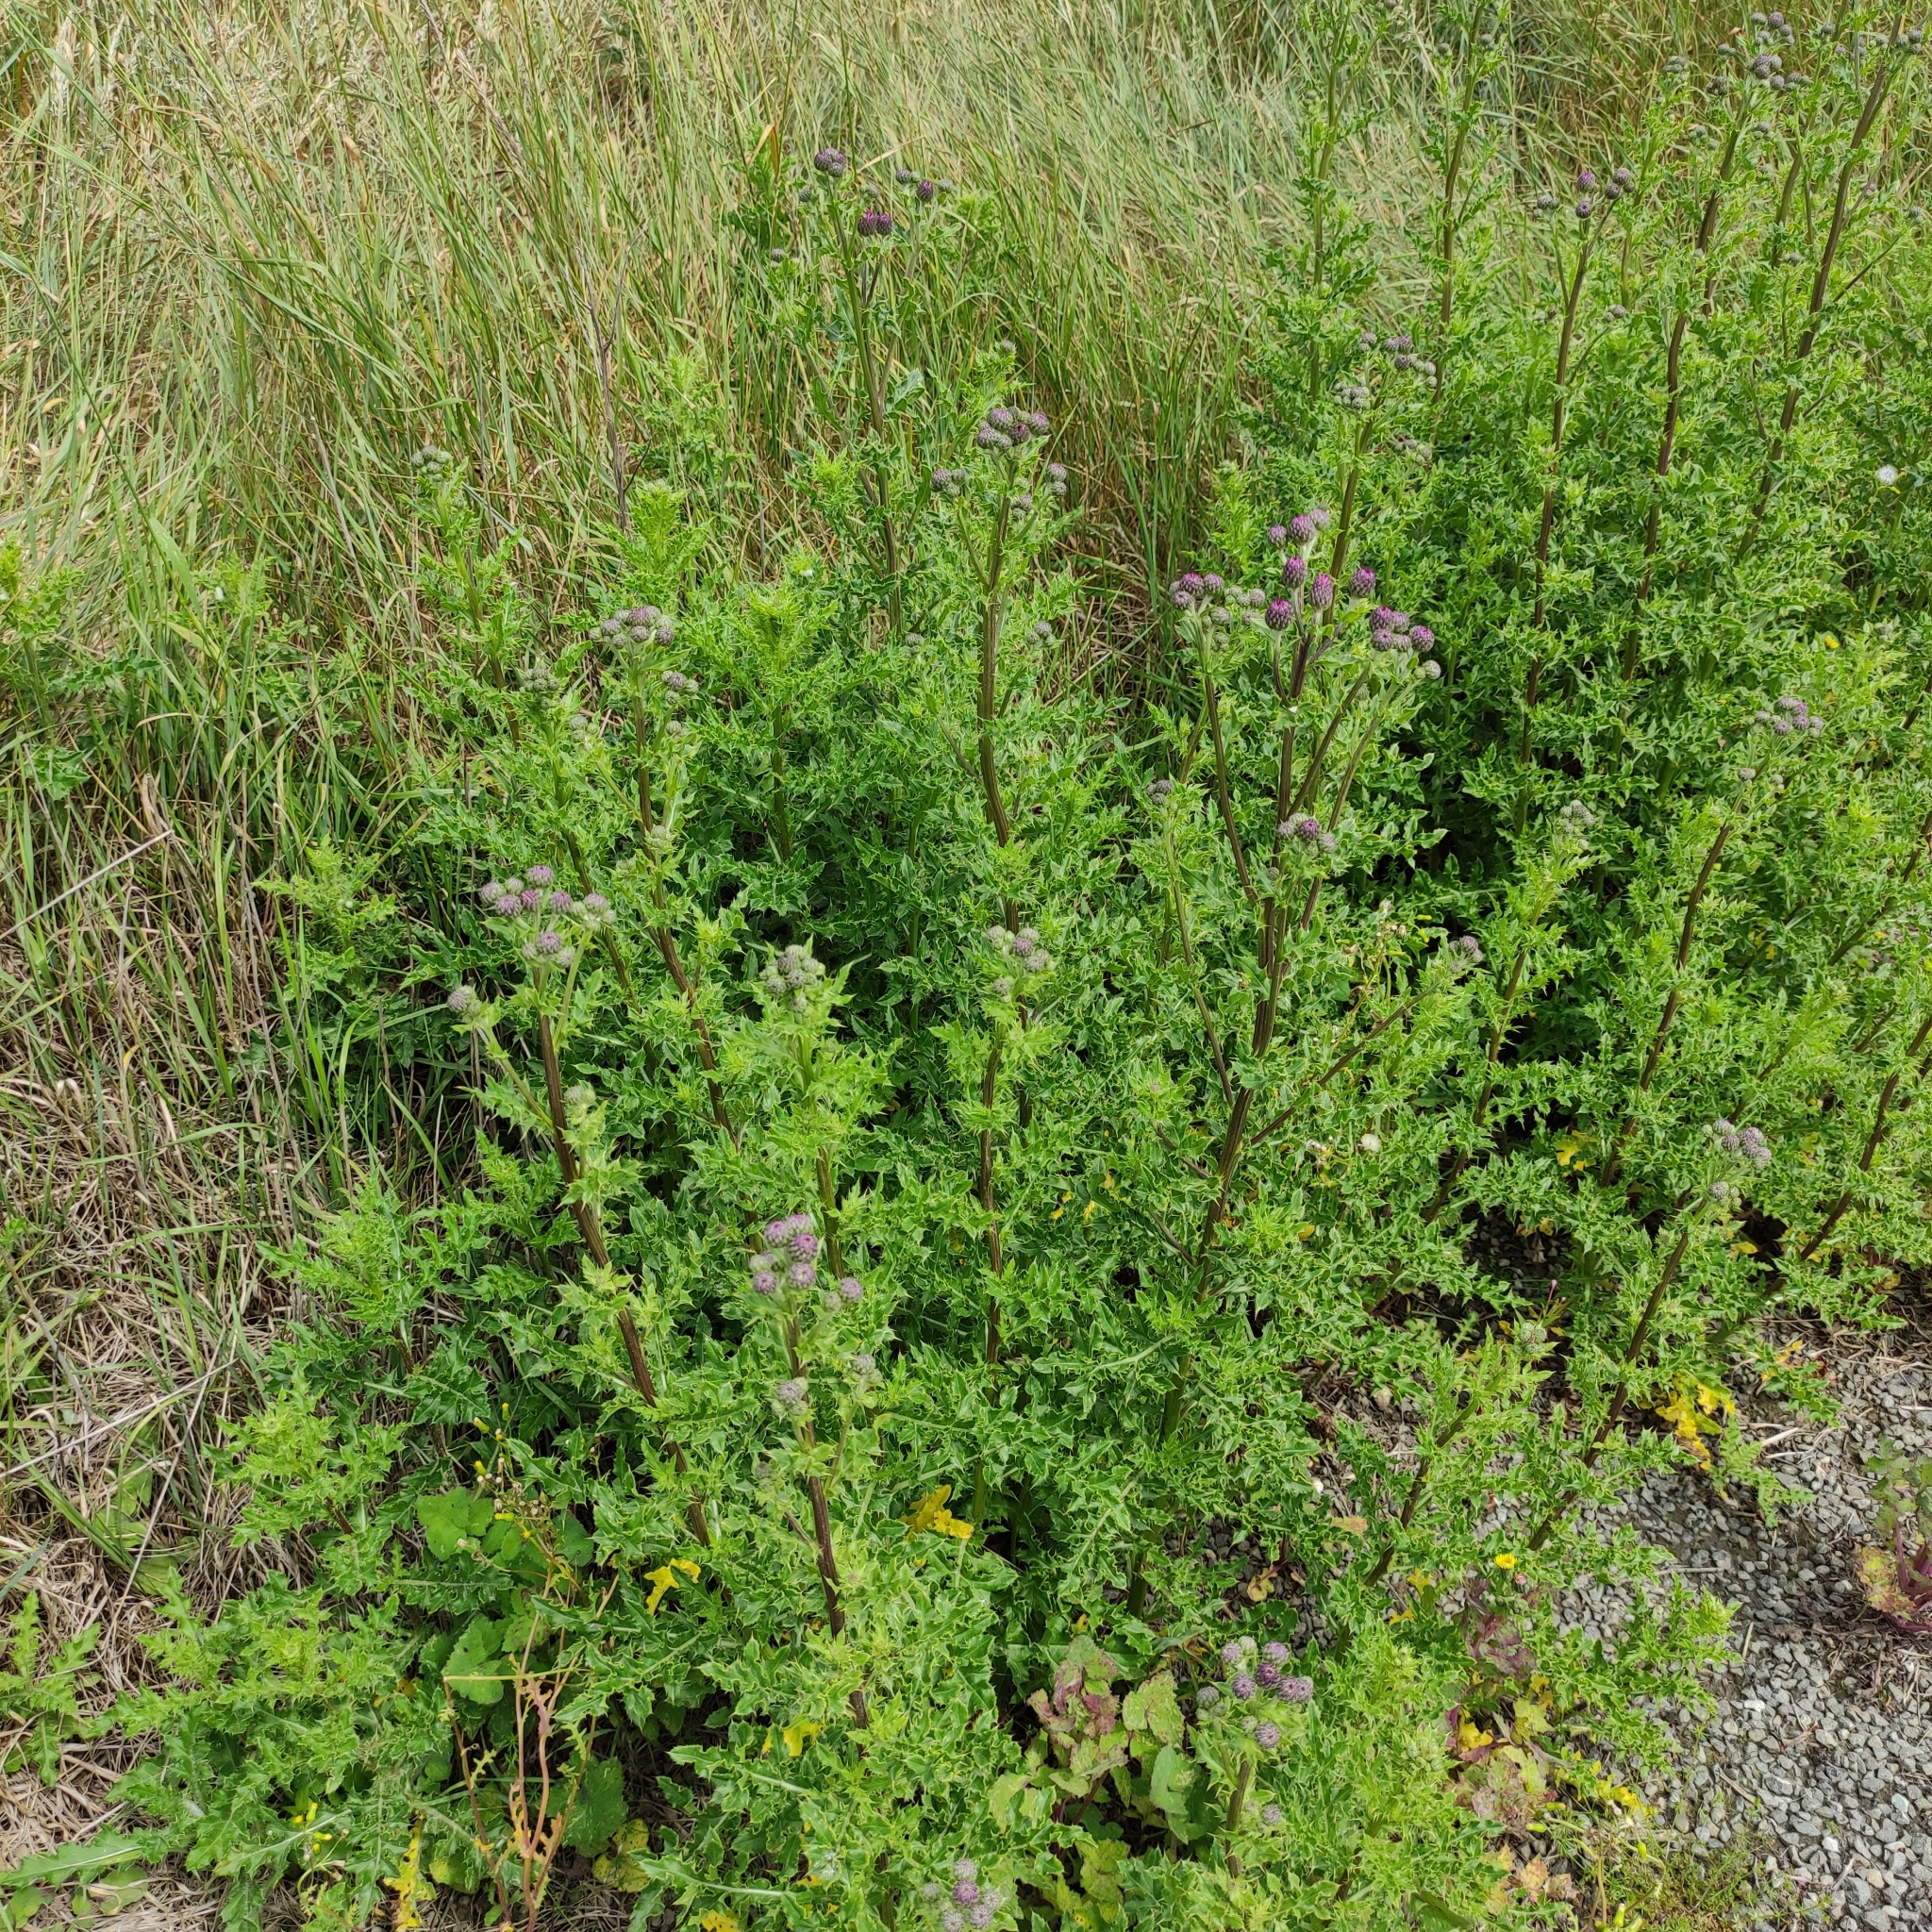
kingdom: Plantae
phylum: Tracheophyta
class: Magnoliopsida
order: Asterales
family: Asteraceae
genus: Cirsium
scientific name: Cirsium arvense
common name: Creeping thistle
